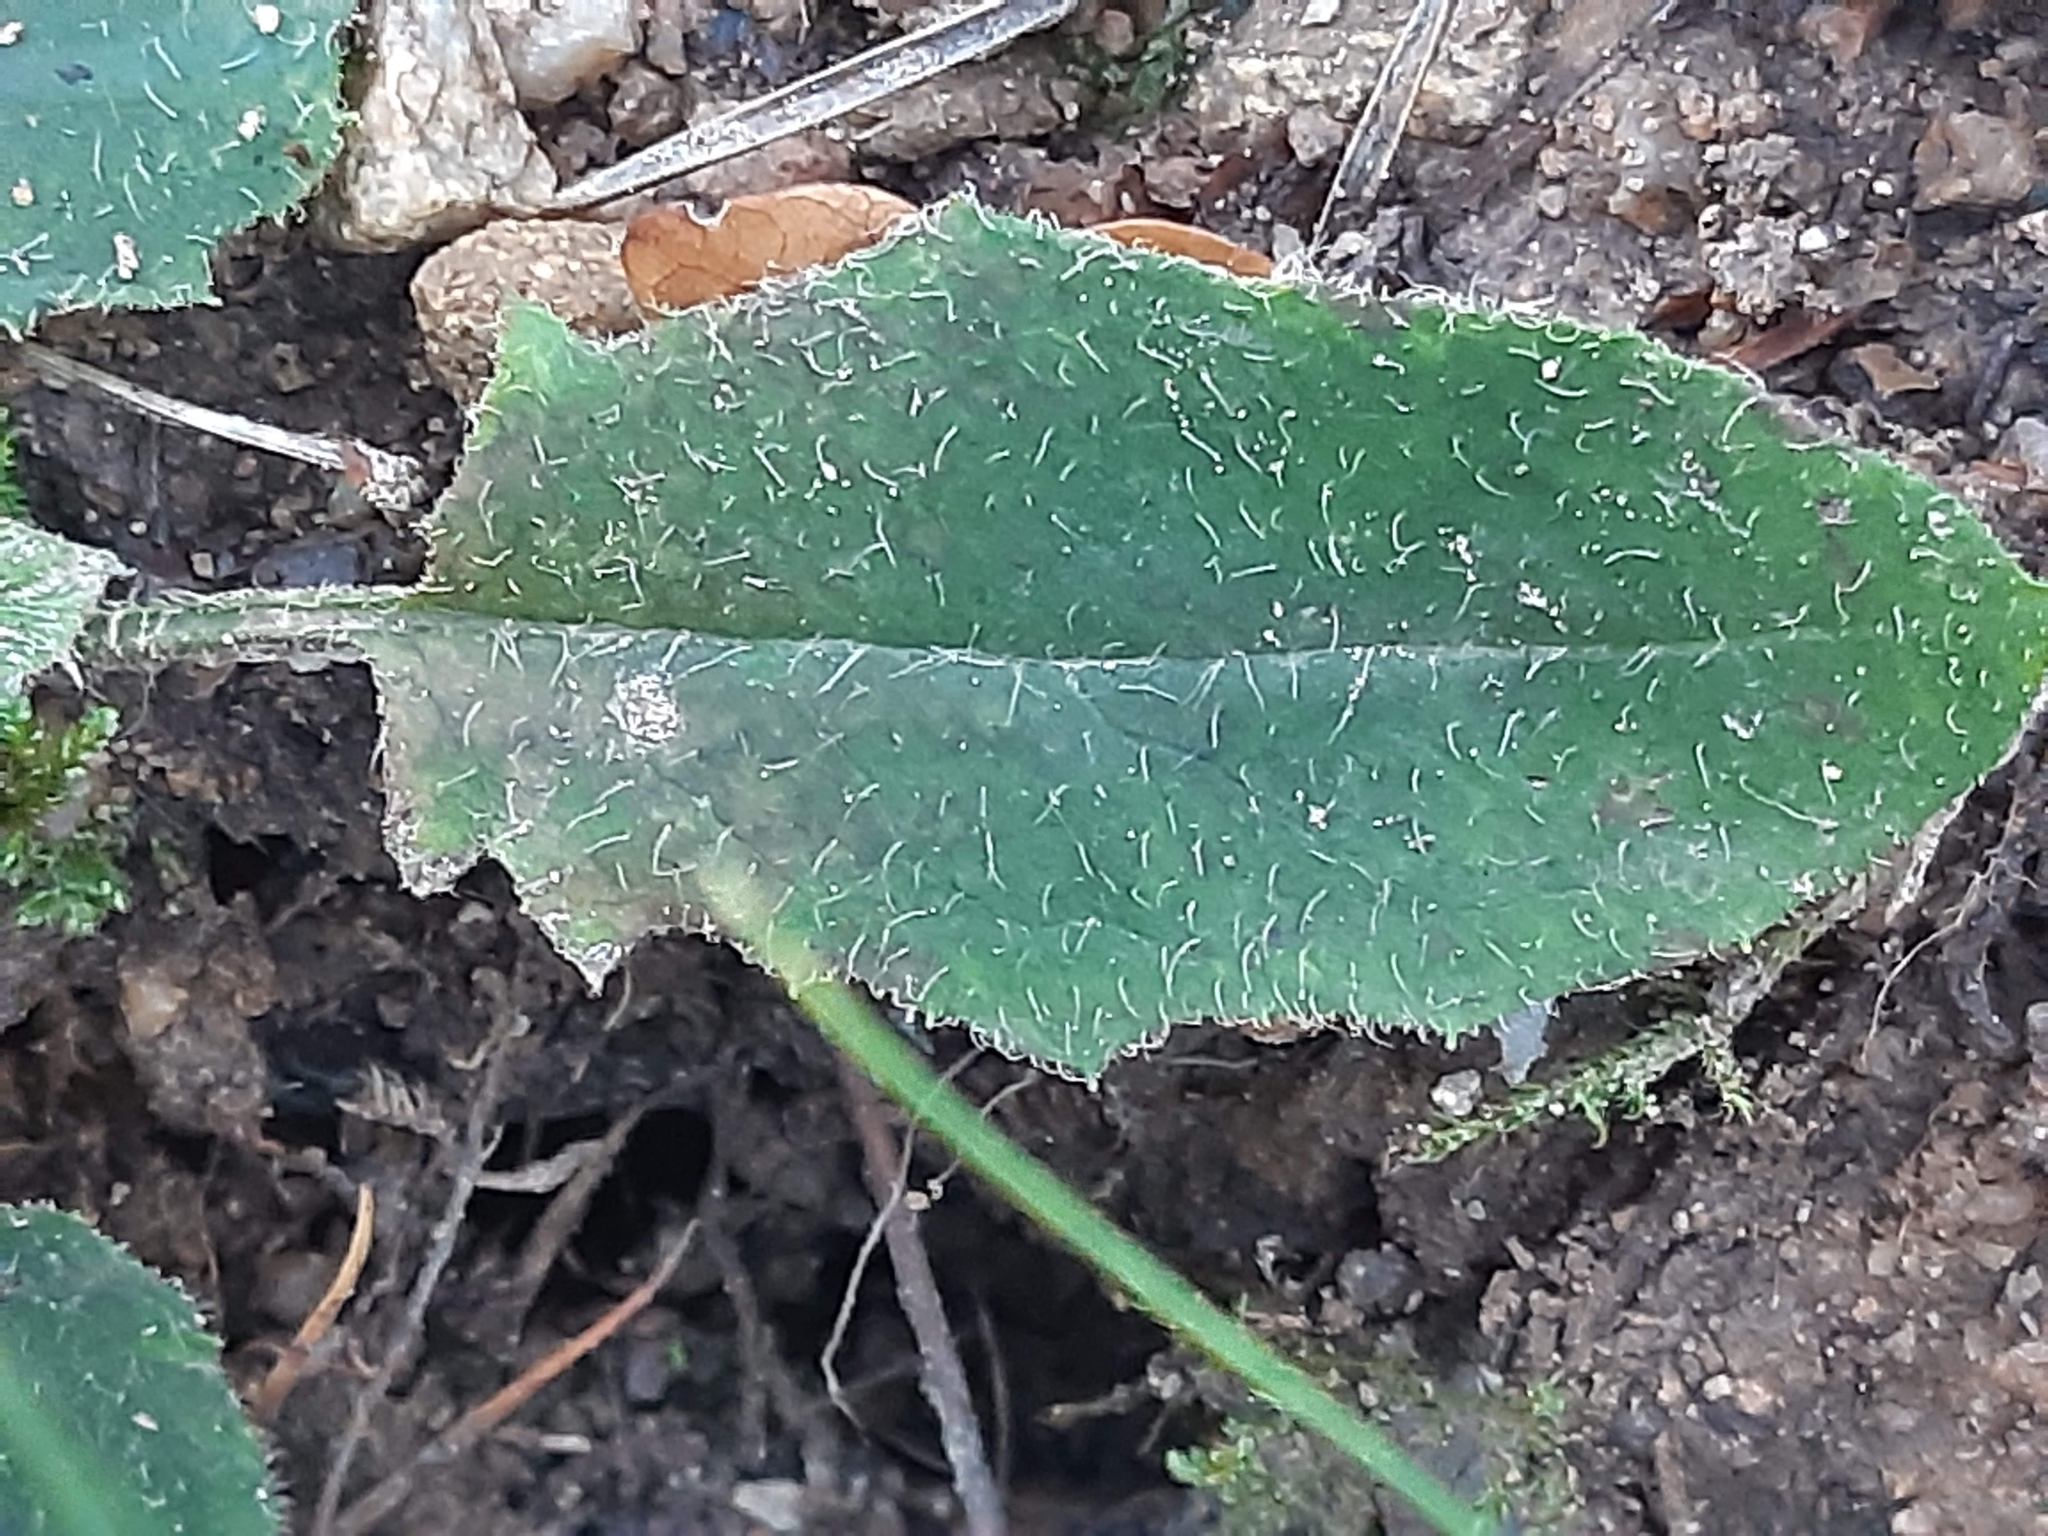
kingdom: Plantae
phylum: Tracheophyta
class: Magnoliopsida
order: Asterales
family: Asteraceae
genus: Hieracium
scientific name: Hieracium murorum
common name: Wall hawkweed
